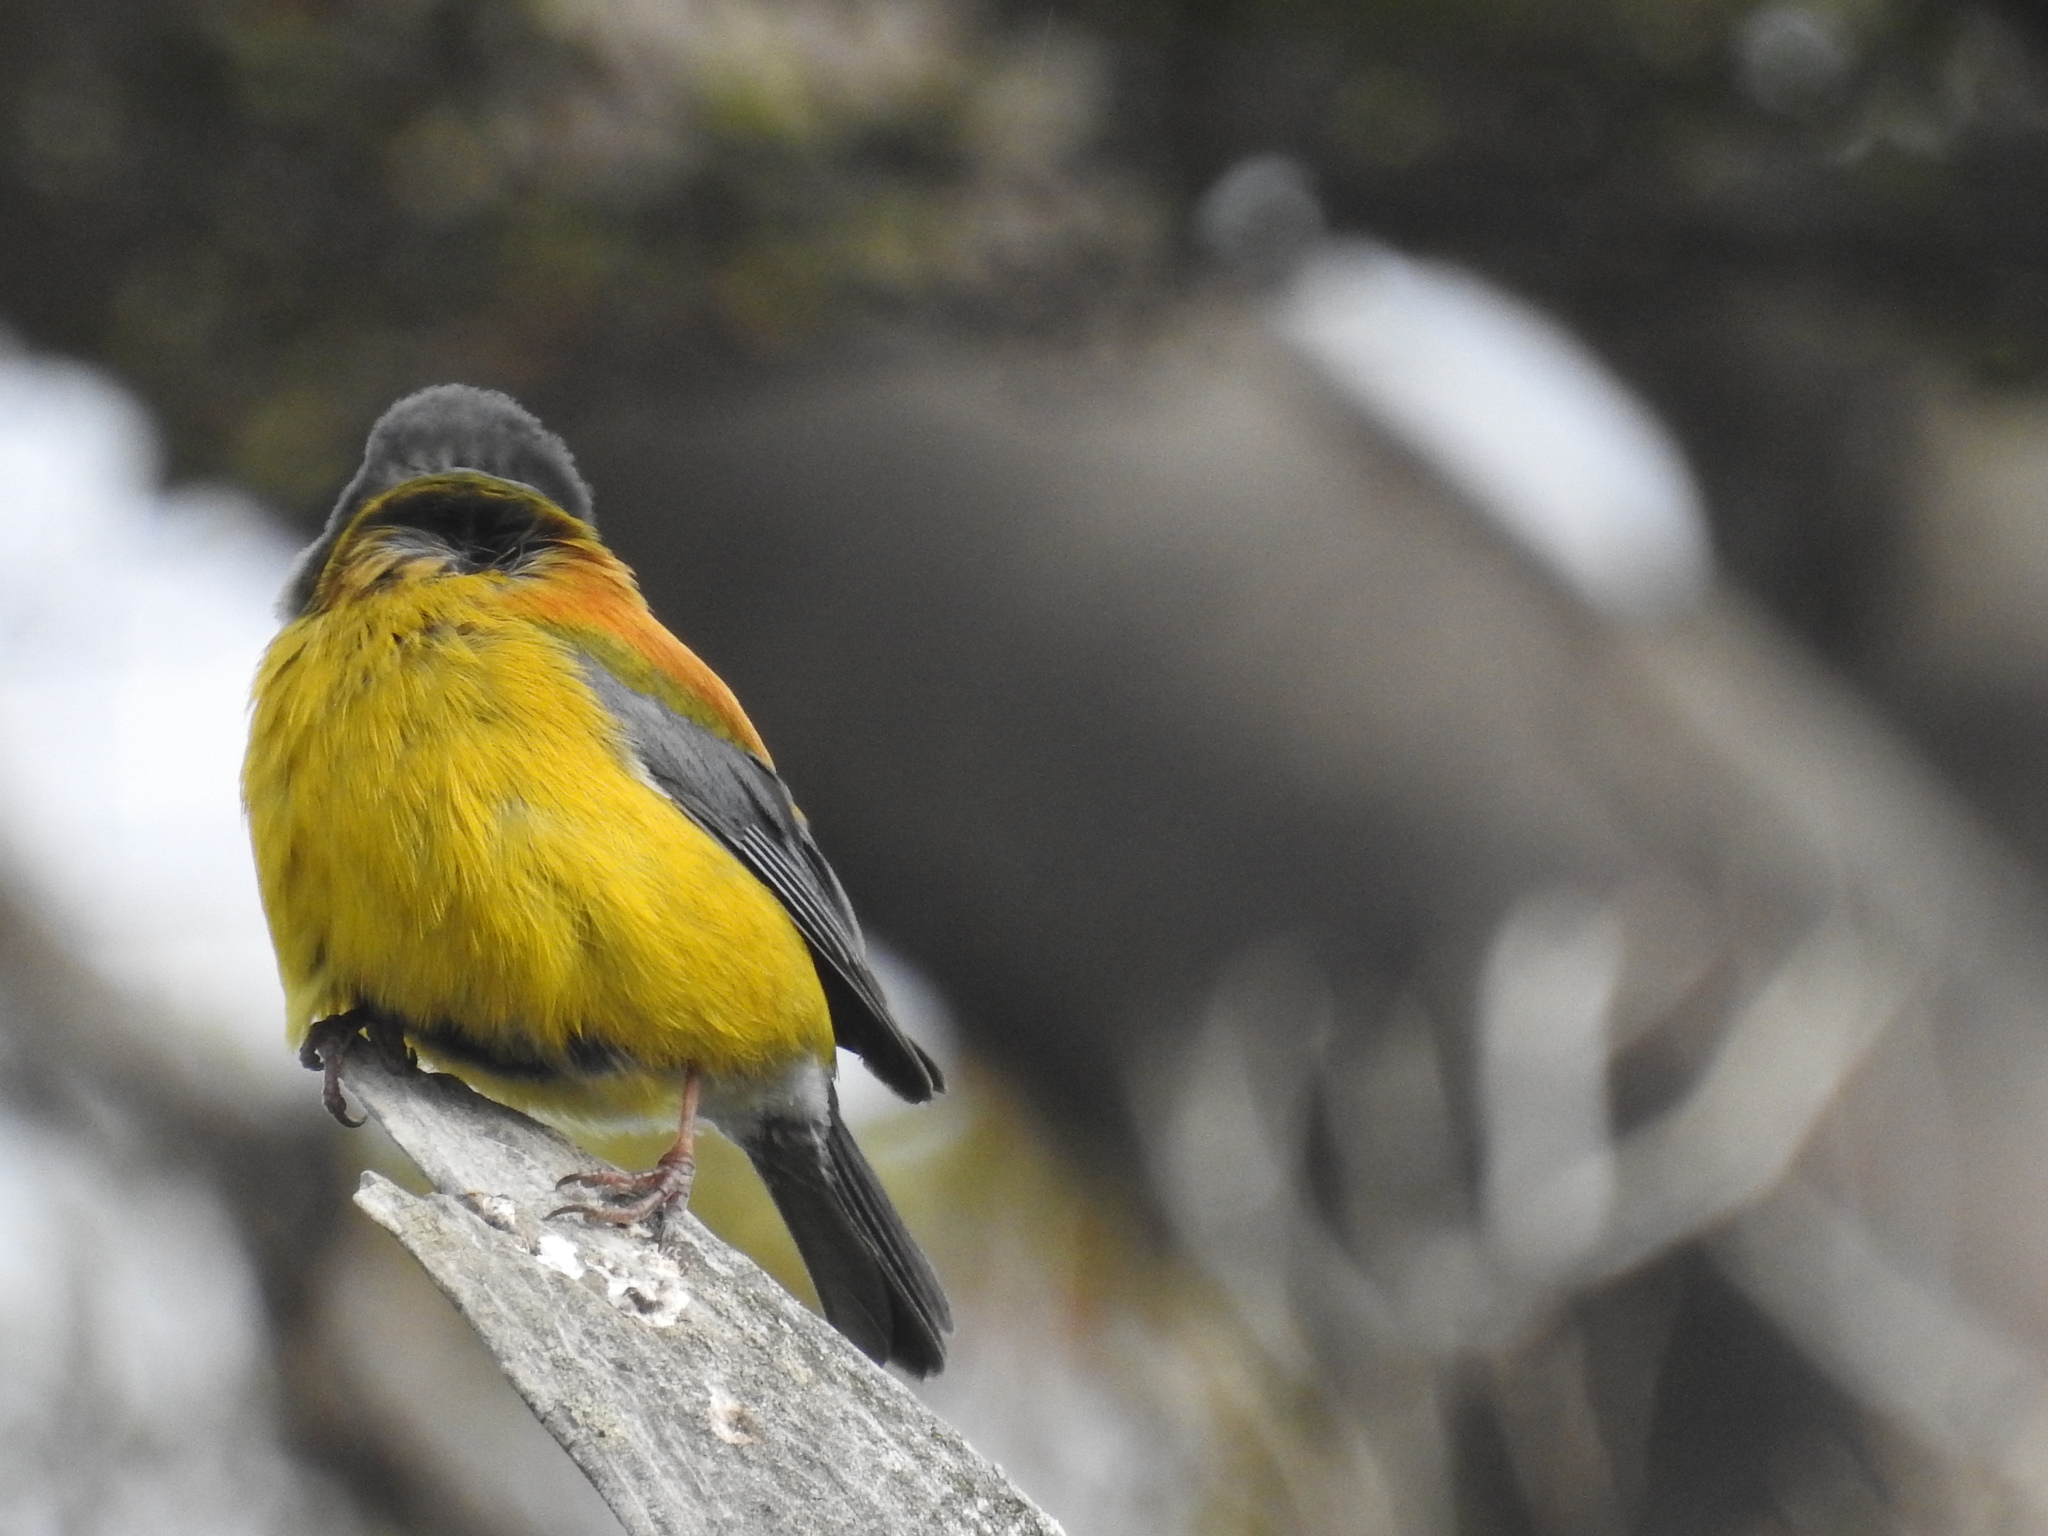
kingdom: Animalia
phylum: Chordata
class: Aves
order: Passeriformes
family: Thraupidae
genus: Phrygilus
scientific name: Phrygilus patagonicus
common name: Patagonian sierra finch
